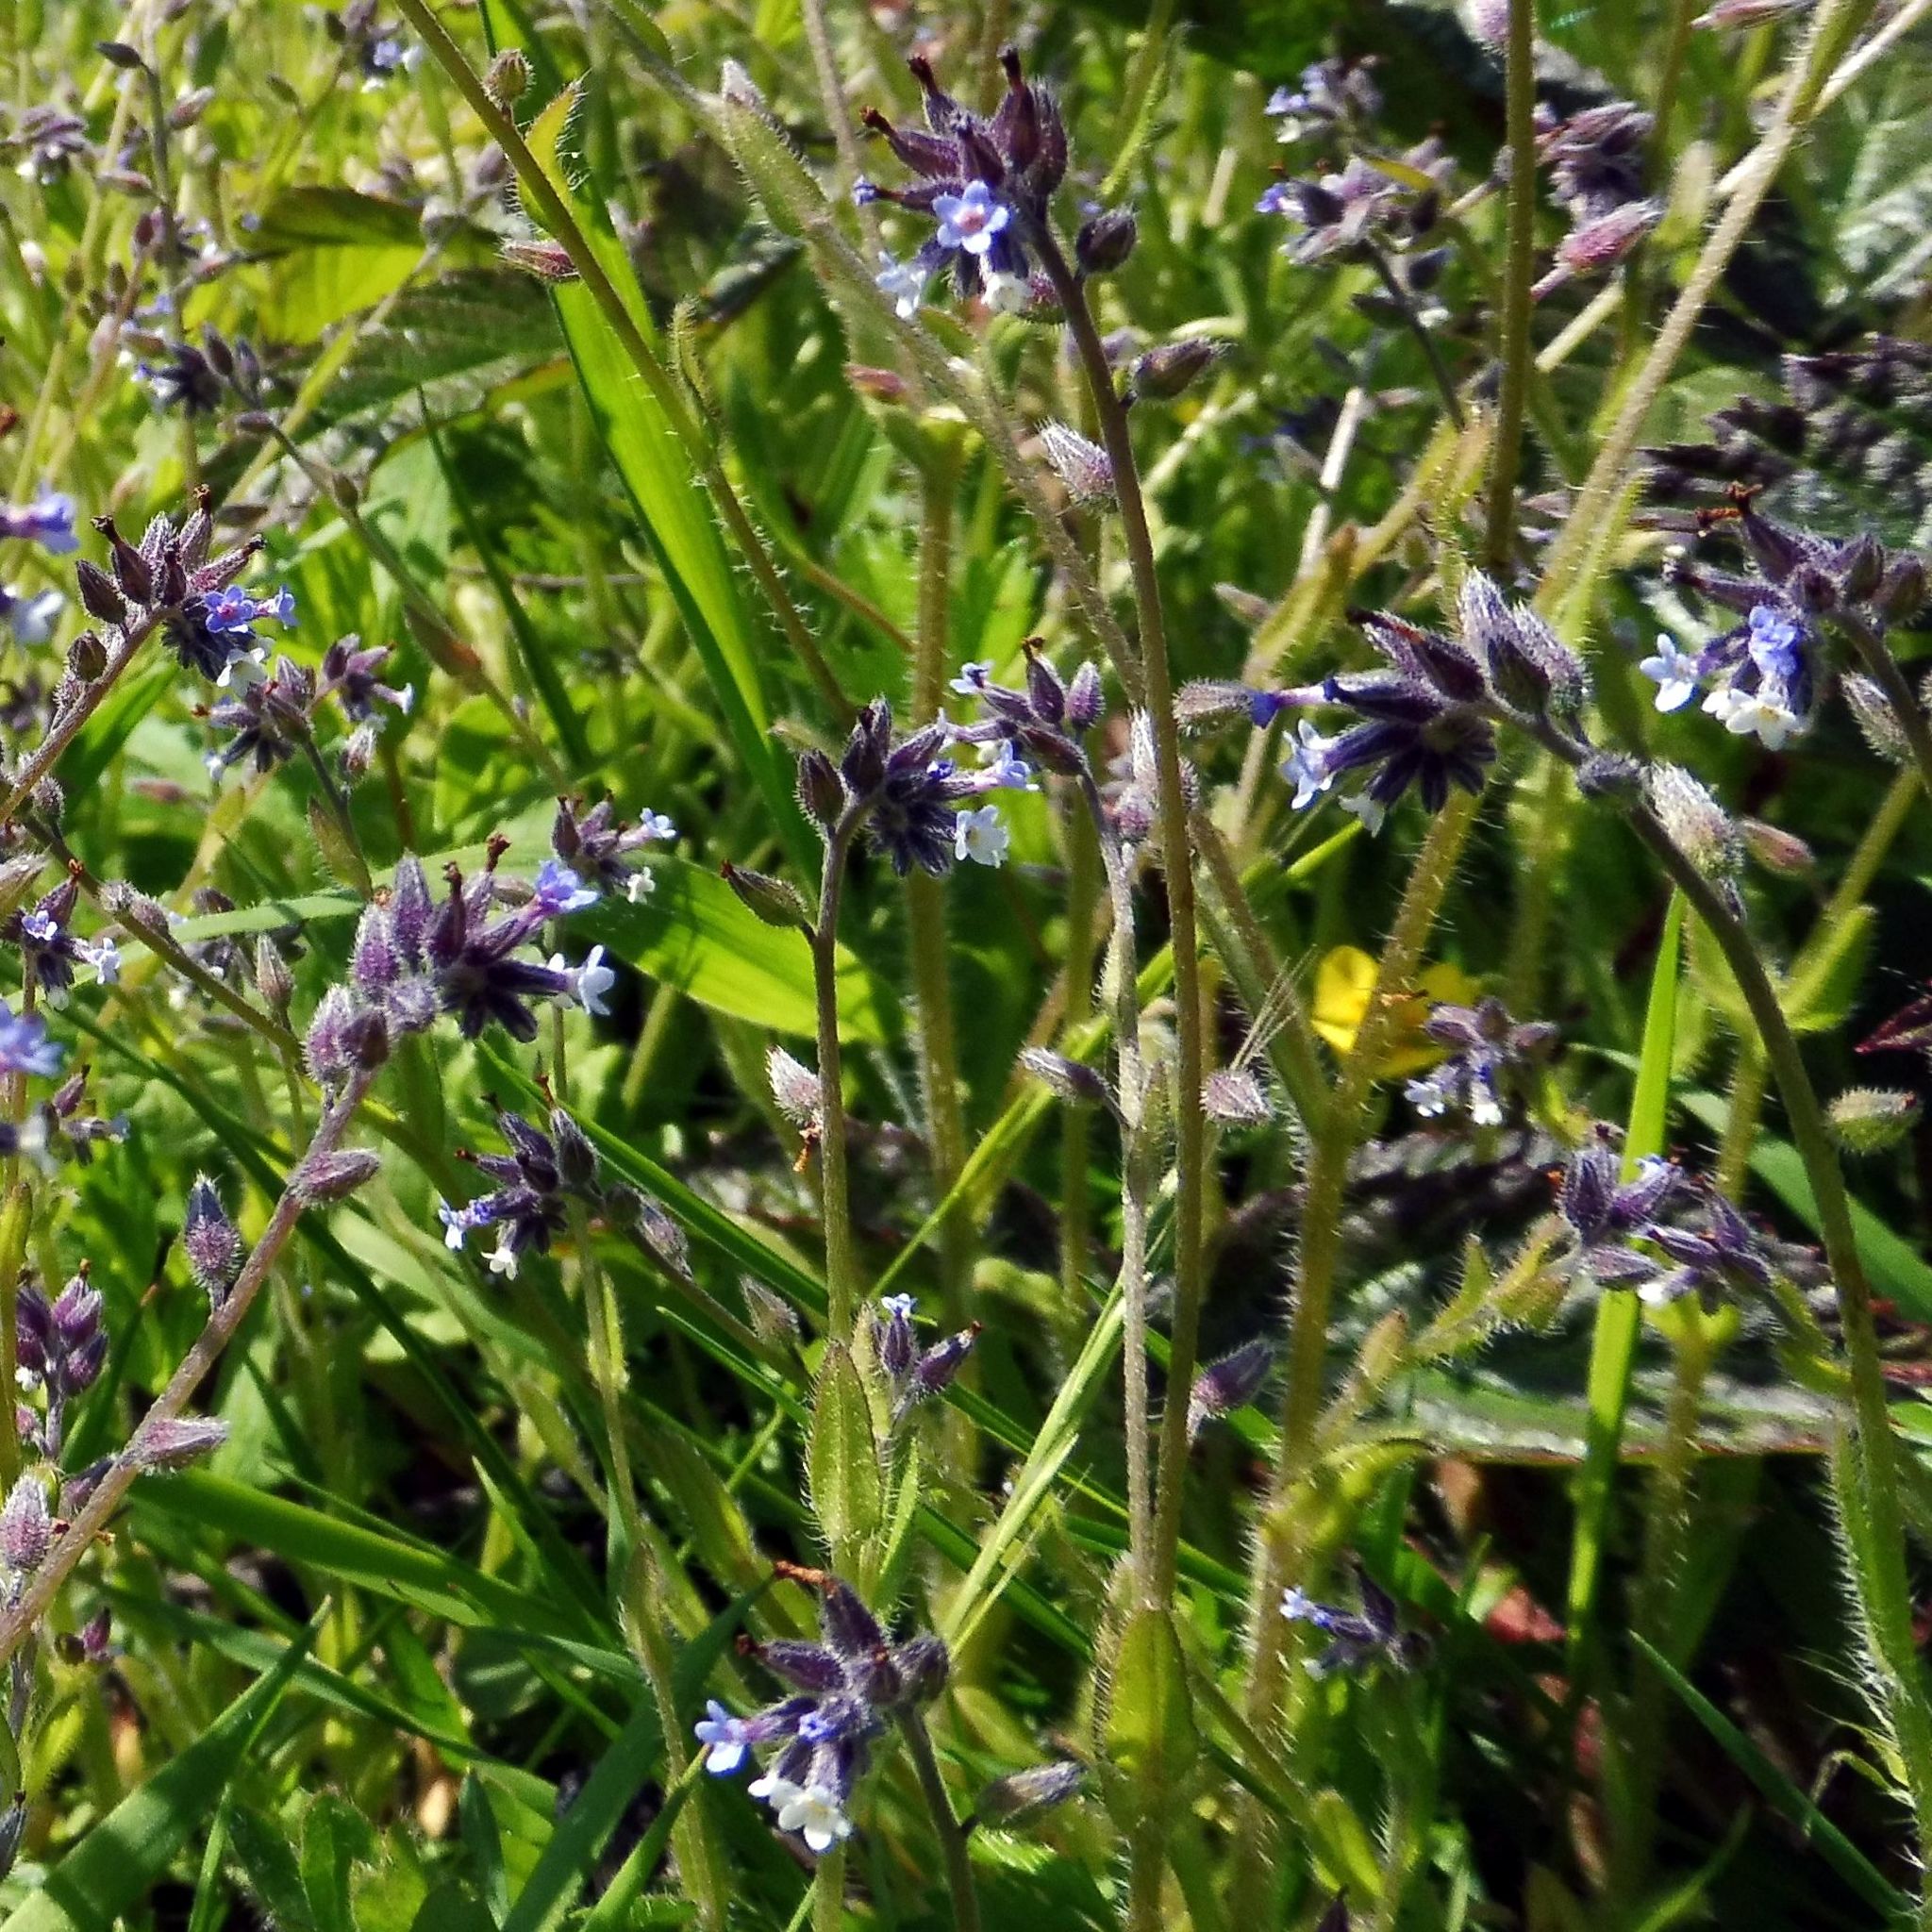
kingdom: Plantae
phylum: Tracheophyta
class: Magnoliopsida
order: Boraginales
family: Boraginaceae
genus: Myosotis
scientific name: Myosotis discolor
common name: Changing forget-me-not
